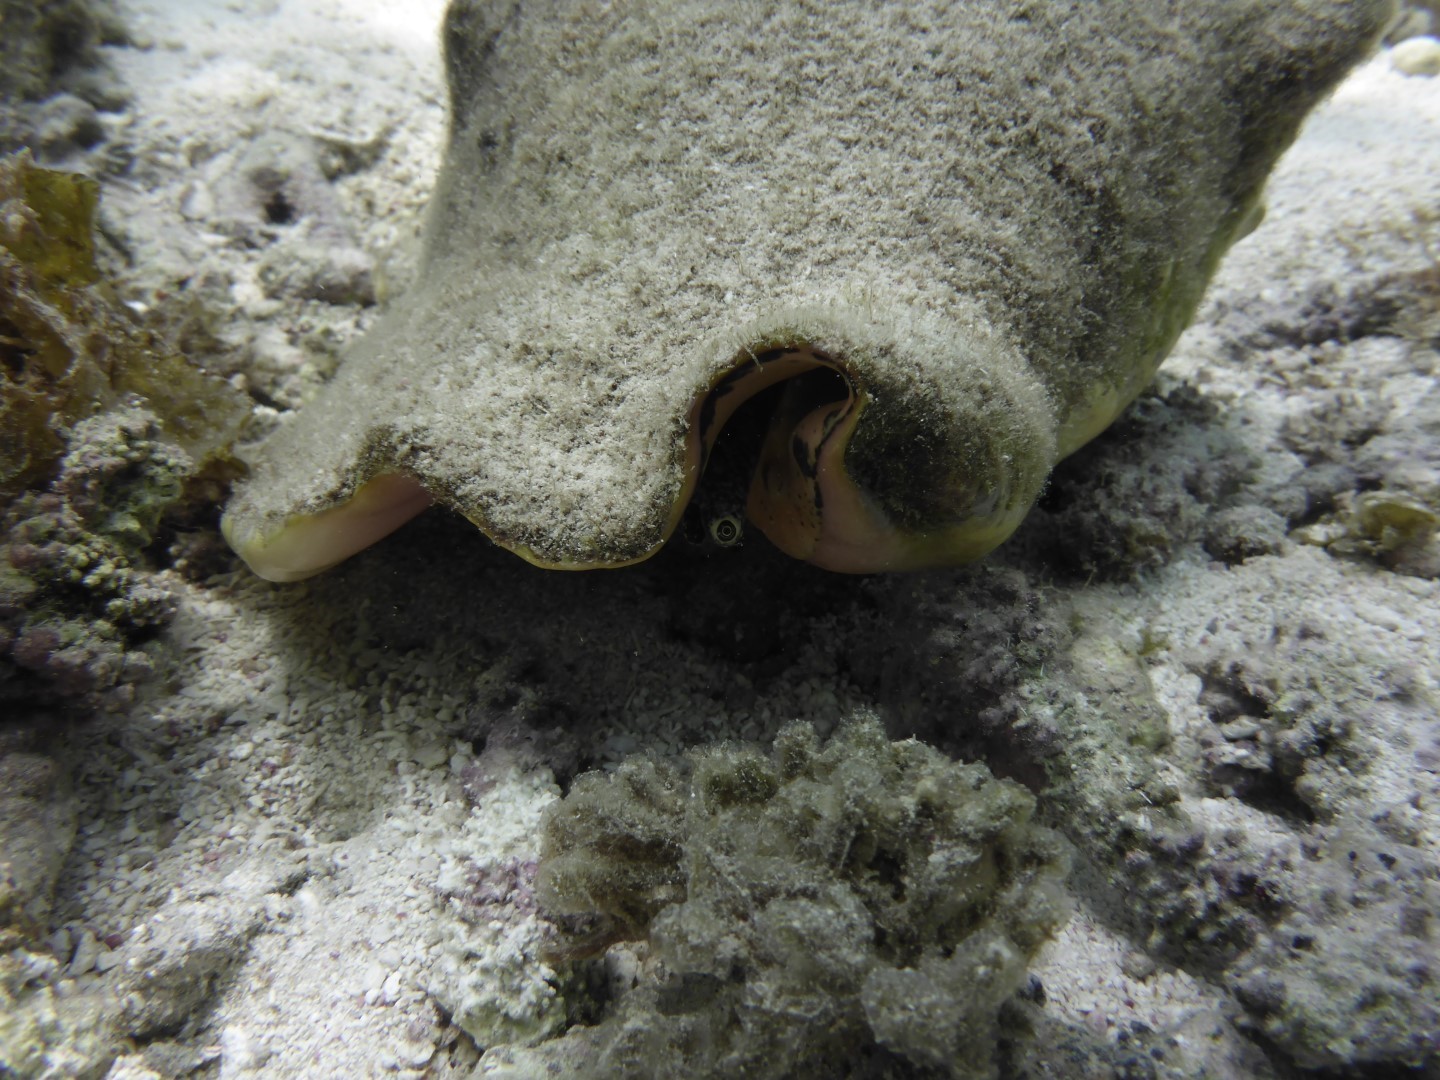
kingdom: Animalia
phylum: Mollusca
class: Gastropoda
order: Littorinimorpha
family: Strombidae
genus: Aliger
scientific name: Aliger gigas
